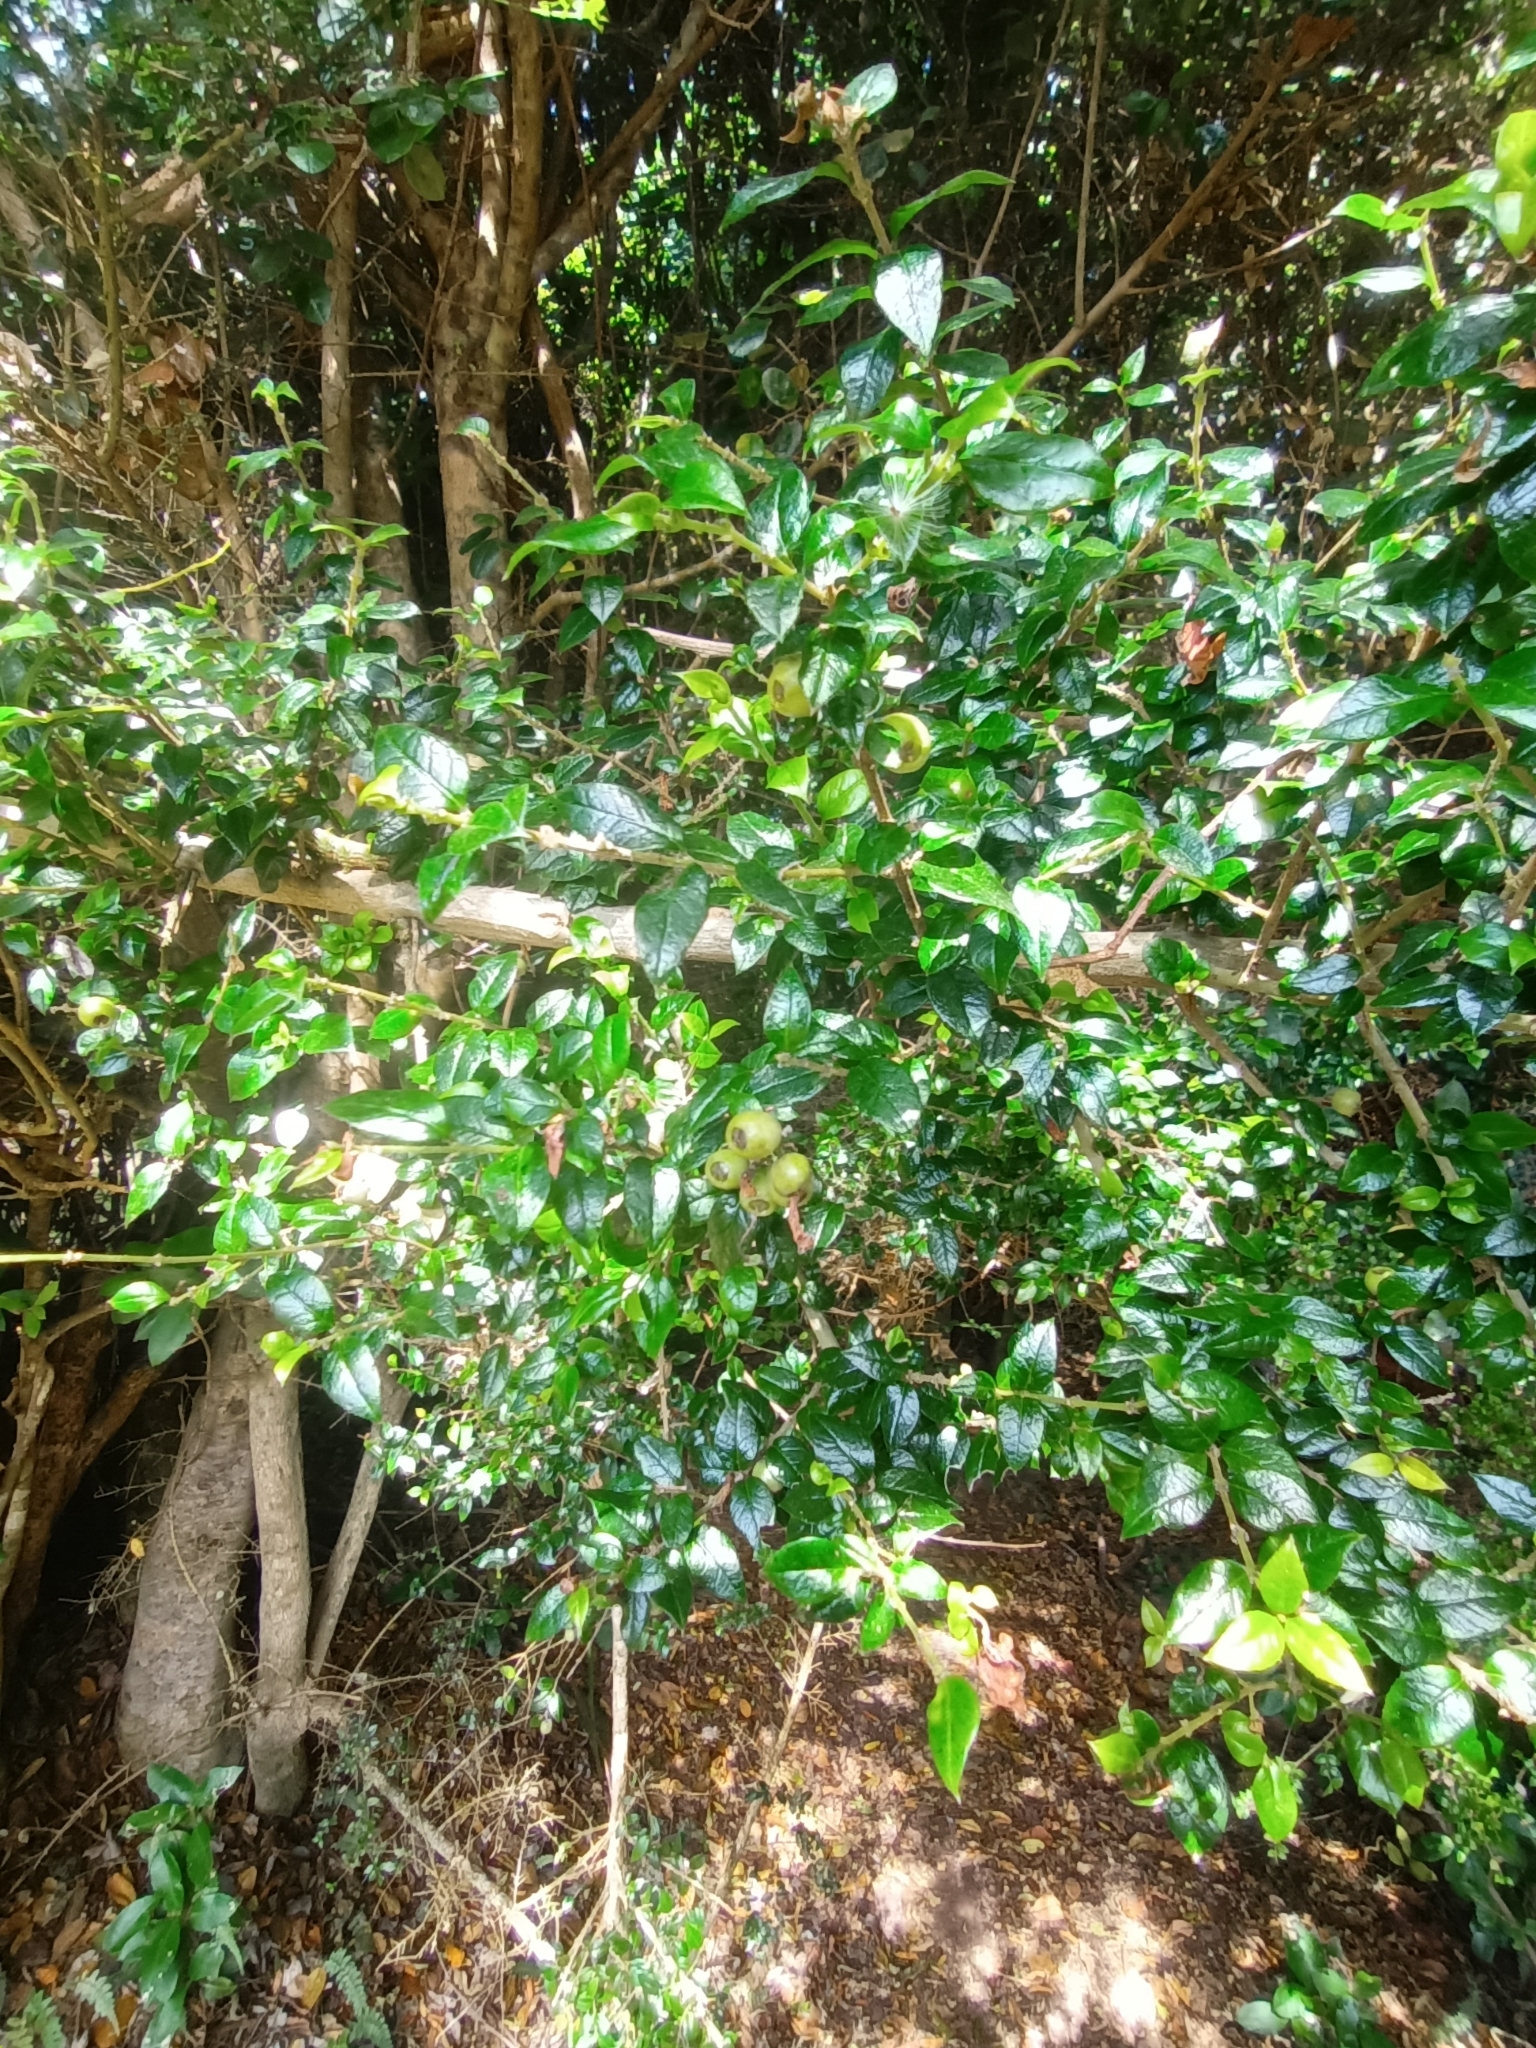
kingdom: Plantae
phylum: Tracheophyta
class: Magnoliopsida
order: Lamiales
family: Verbenaceae
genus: Rhaphithamnus
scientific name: Rhaphithamnus spinosus
